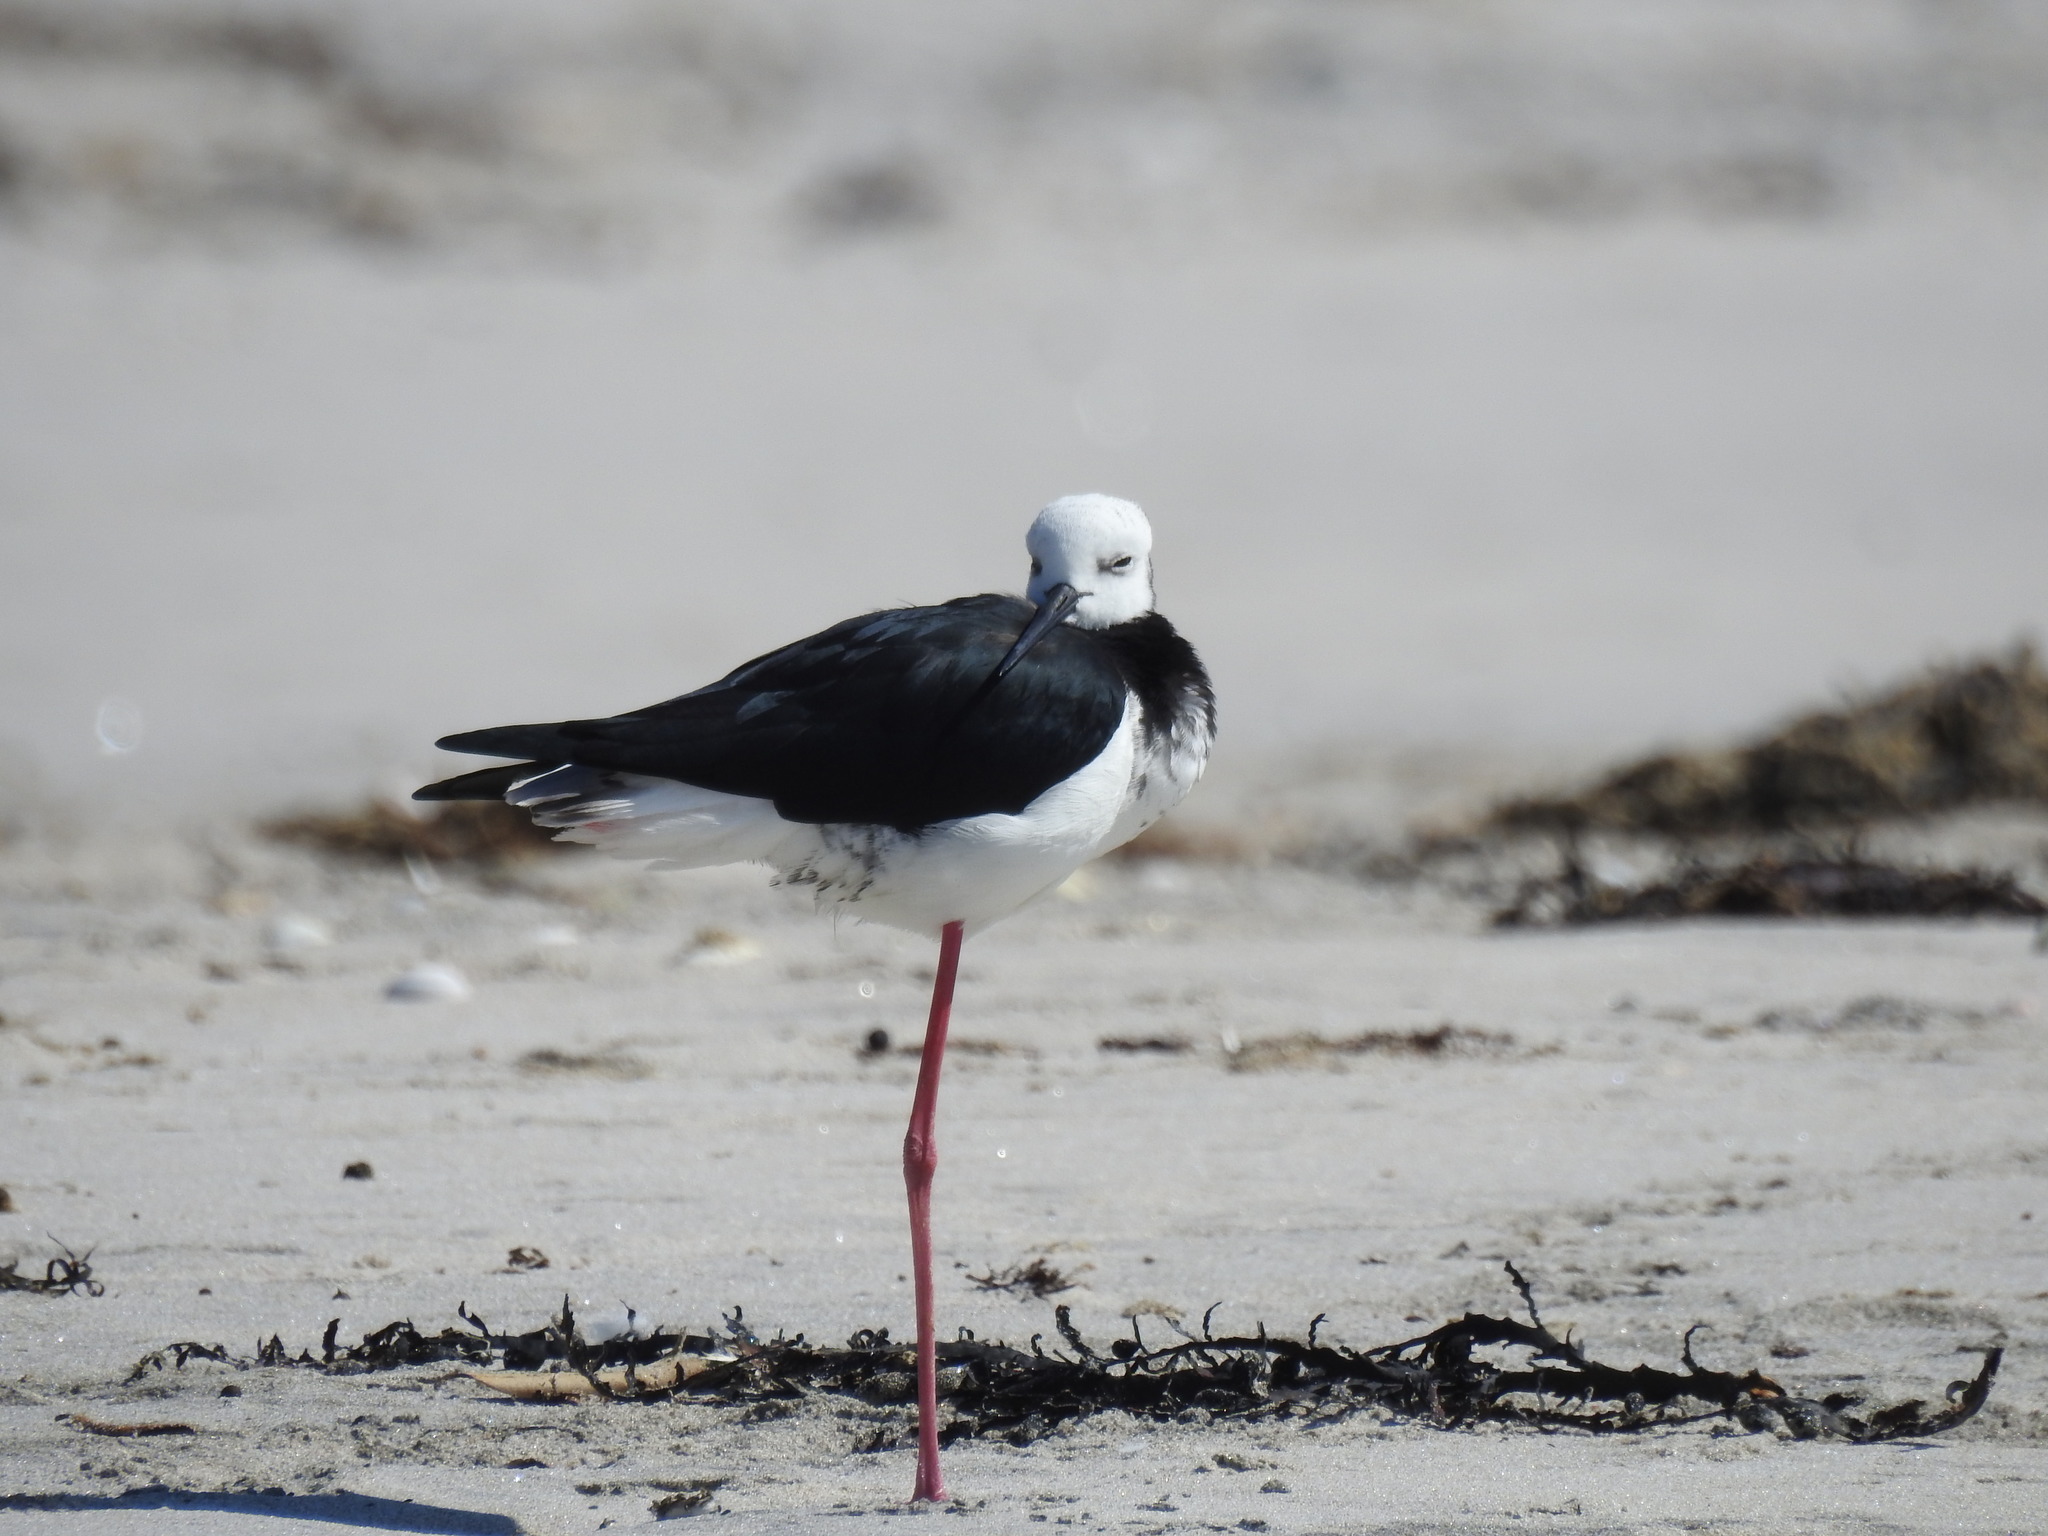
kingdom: Animalia
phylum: Chordata
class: Aves
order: Charadriiformes
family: Recurvirostridae
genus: Himantopus
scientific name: Himantopus leucocephalus
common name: White-headed stilt
